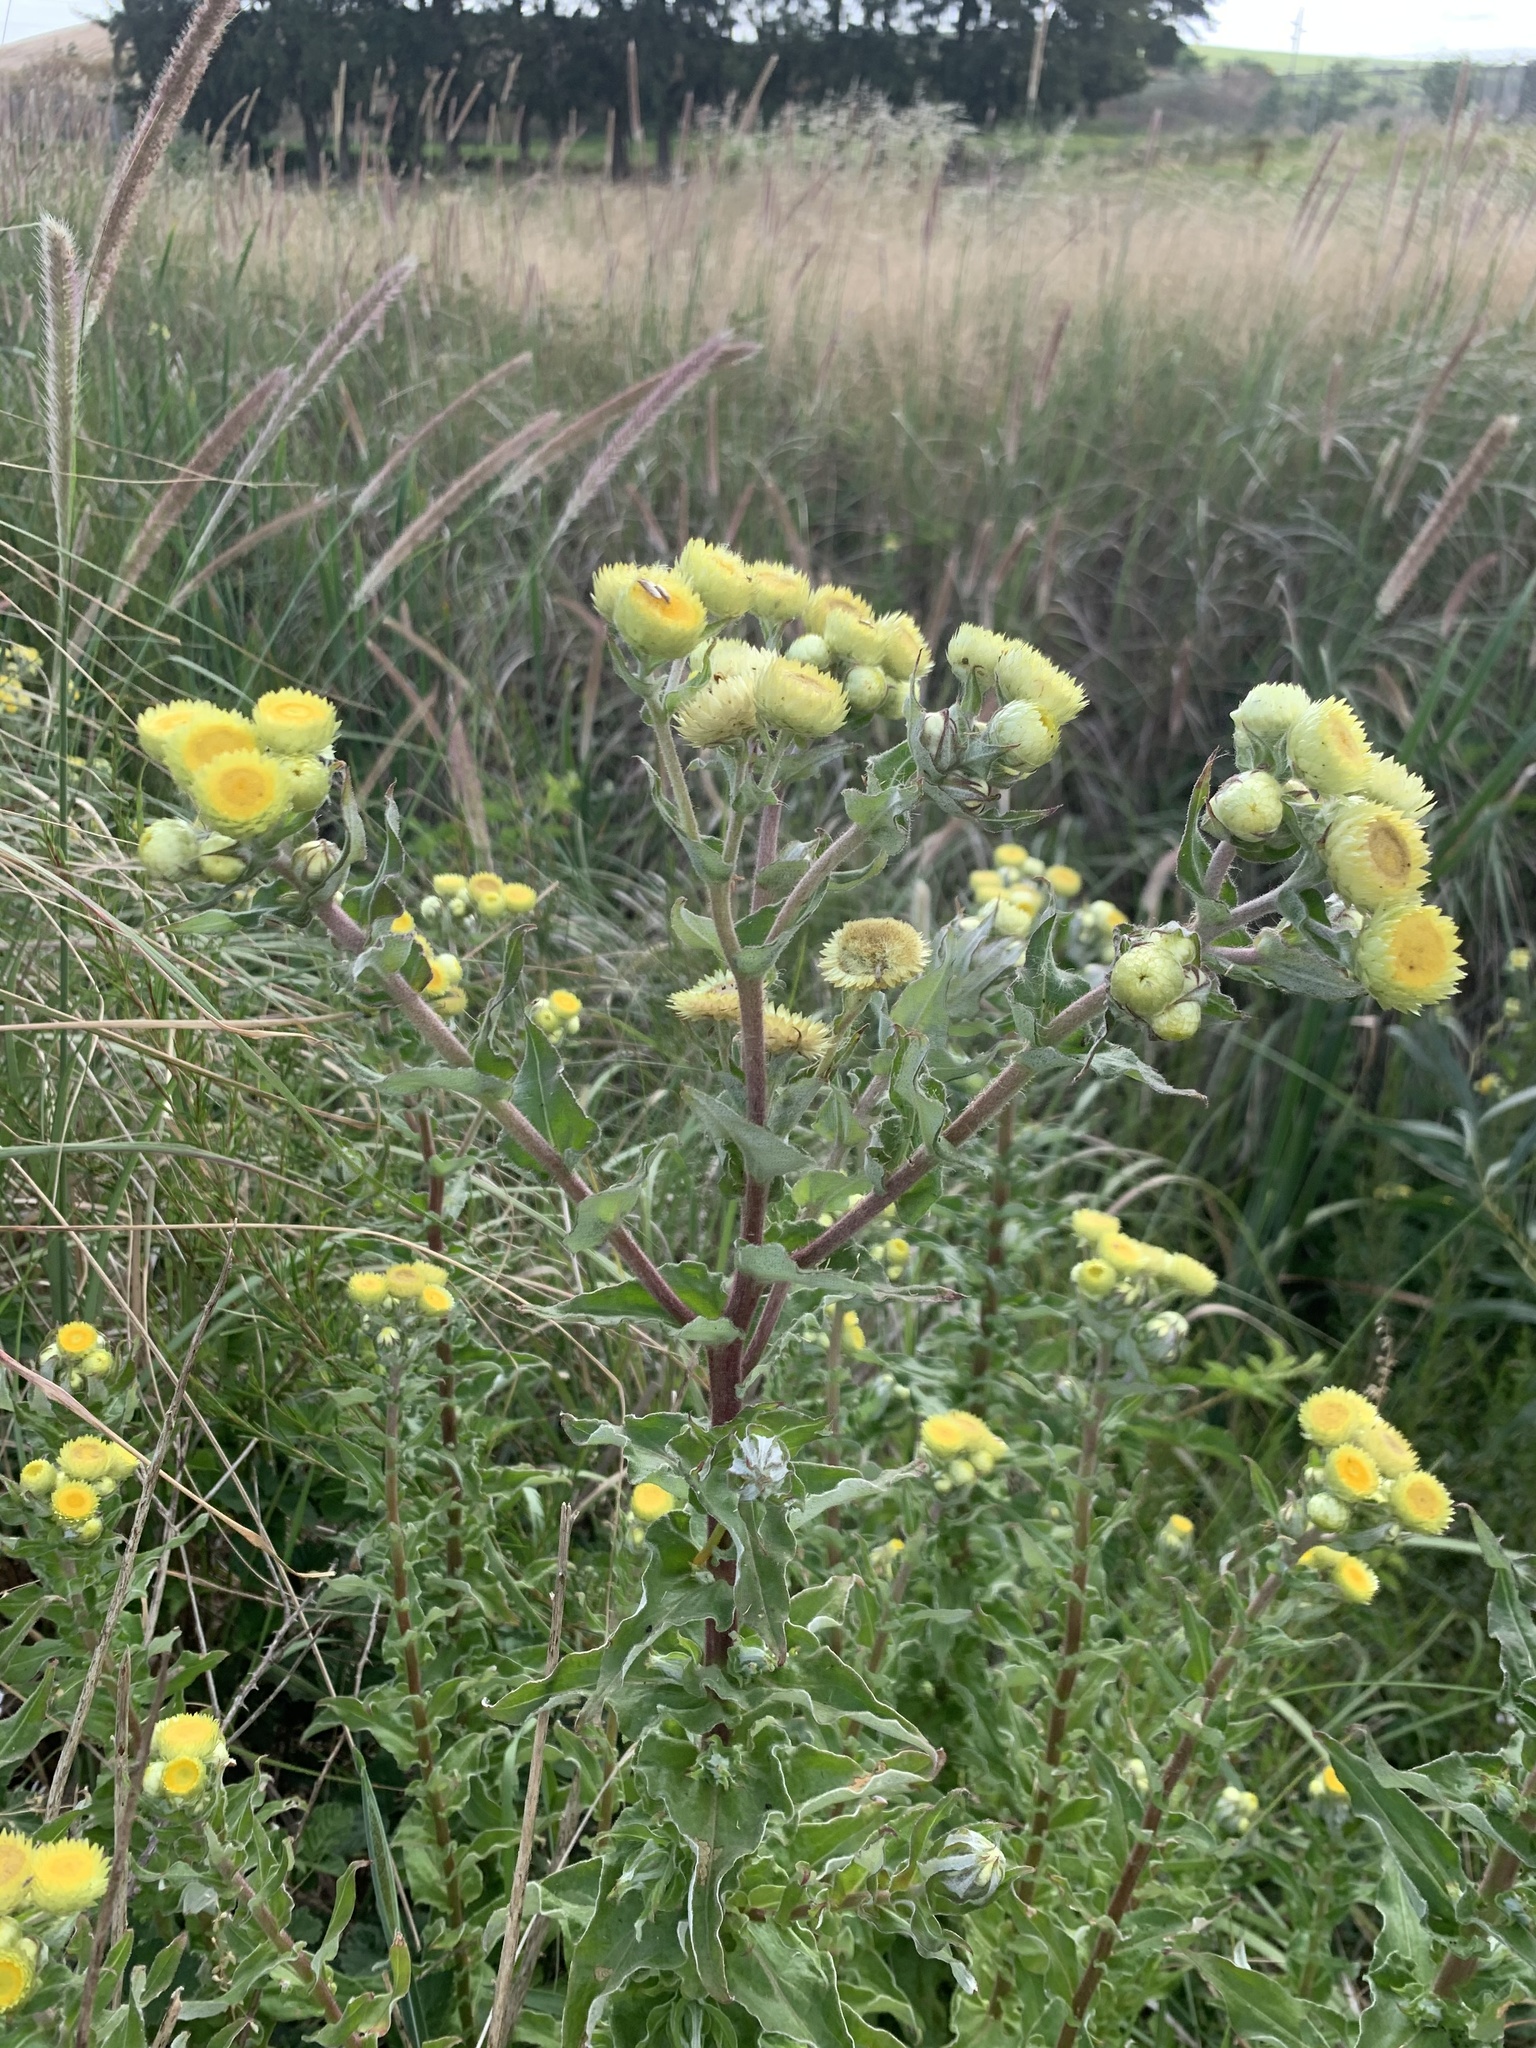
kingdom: Plantae
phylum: Tracheophyta
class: Magnoliopsida
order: Asterales
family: Asteraceae
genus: Helichrysum
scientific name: Helichrysum foetidum
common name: Stinking everlasting
